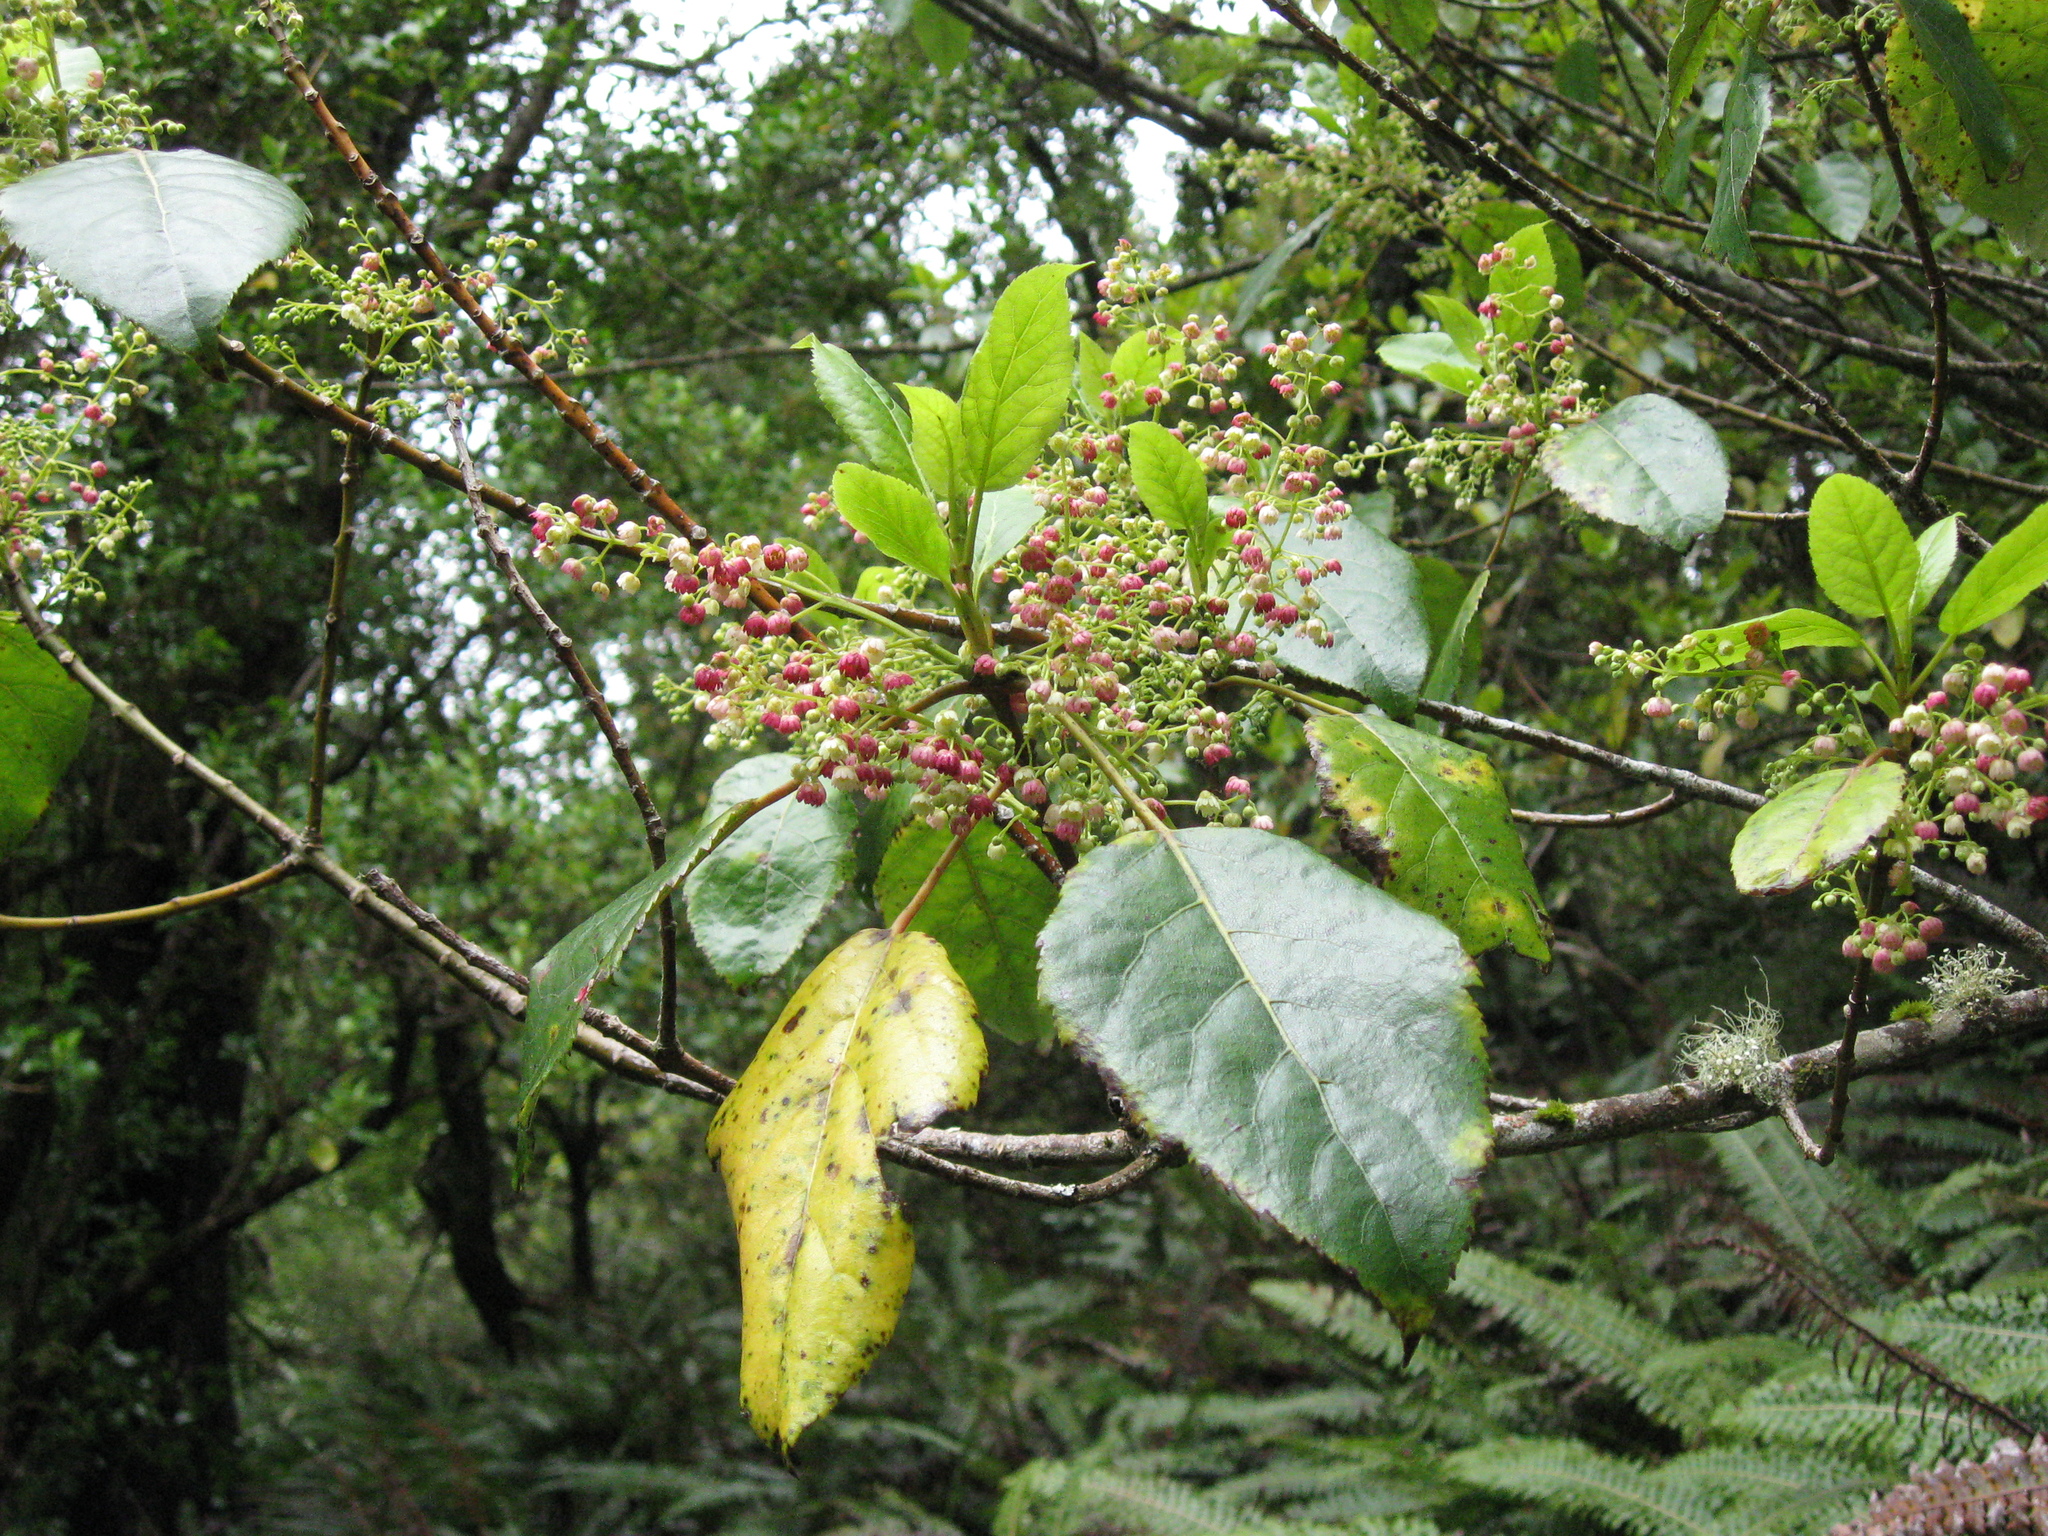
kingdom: Plantae
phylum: Tracheophyta
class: Magnoliopsida
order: Oxalidales
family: Elaeocarpaceae
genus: Aristotelia
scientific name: Aristotelia serrata
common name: New zealand wineberry
